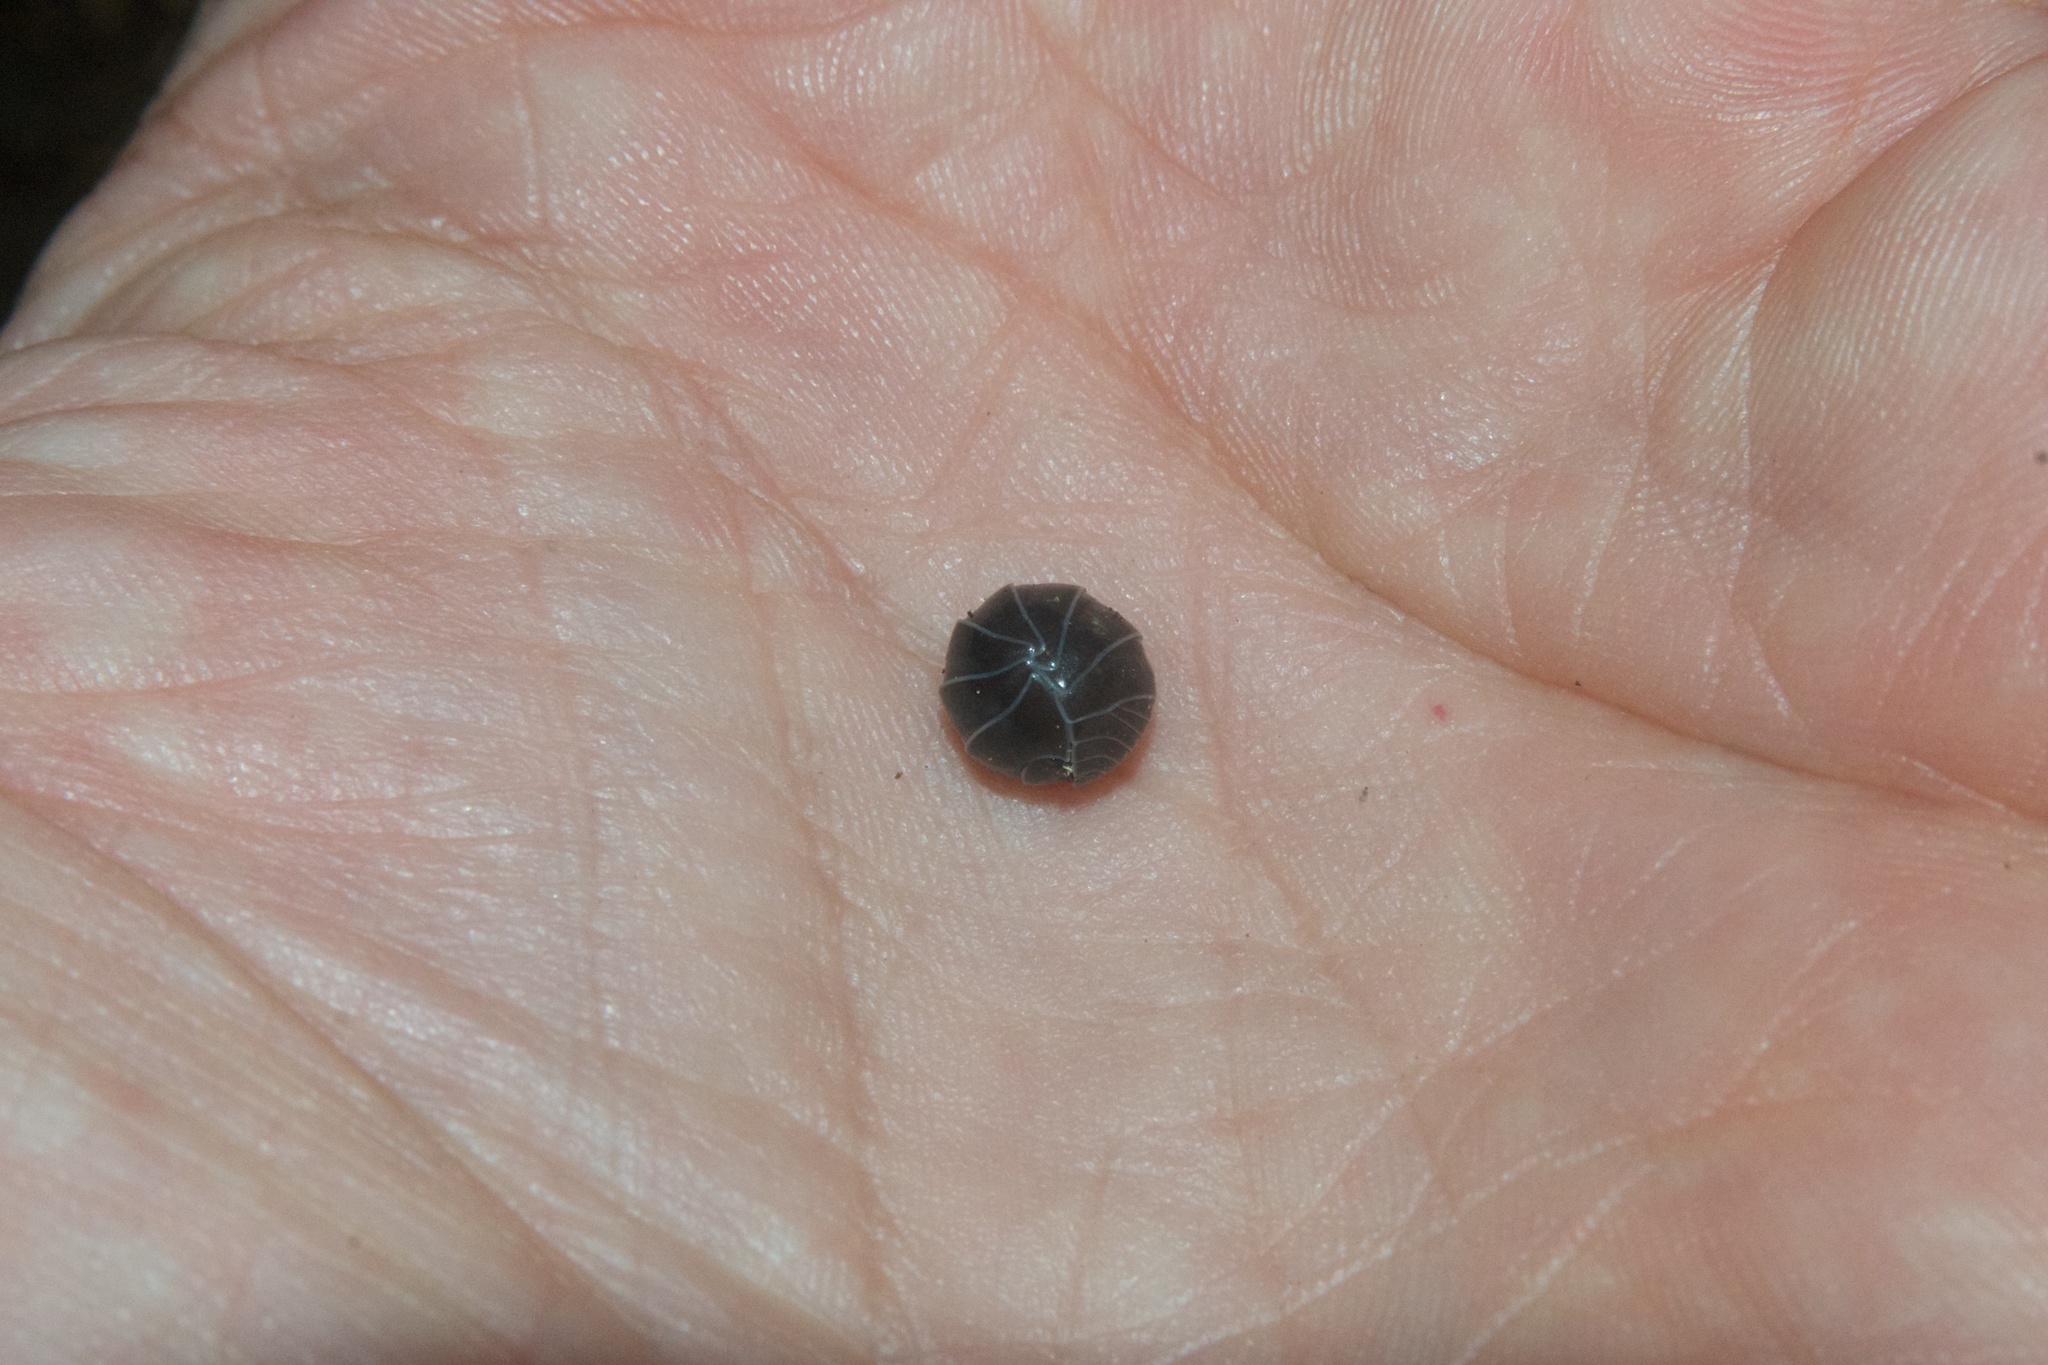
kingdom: Animalia
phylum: Arthropoda
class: Malacostraca
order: Isopoda
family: Armadillidiidae
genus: Armadillidium
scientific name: Armadillidium vulgare
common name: Common pill woodlouse
